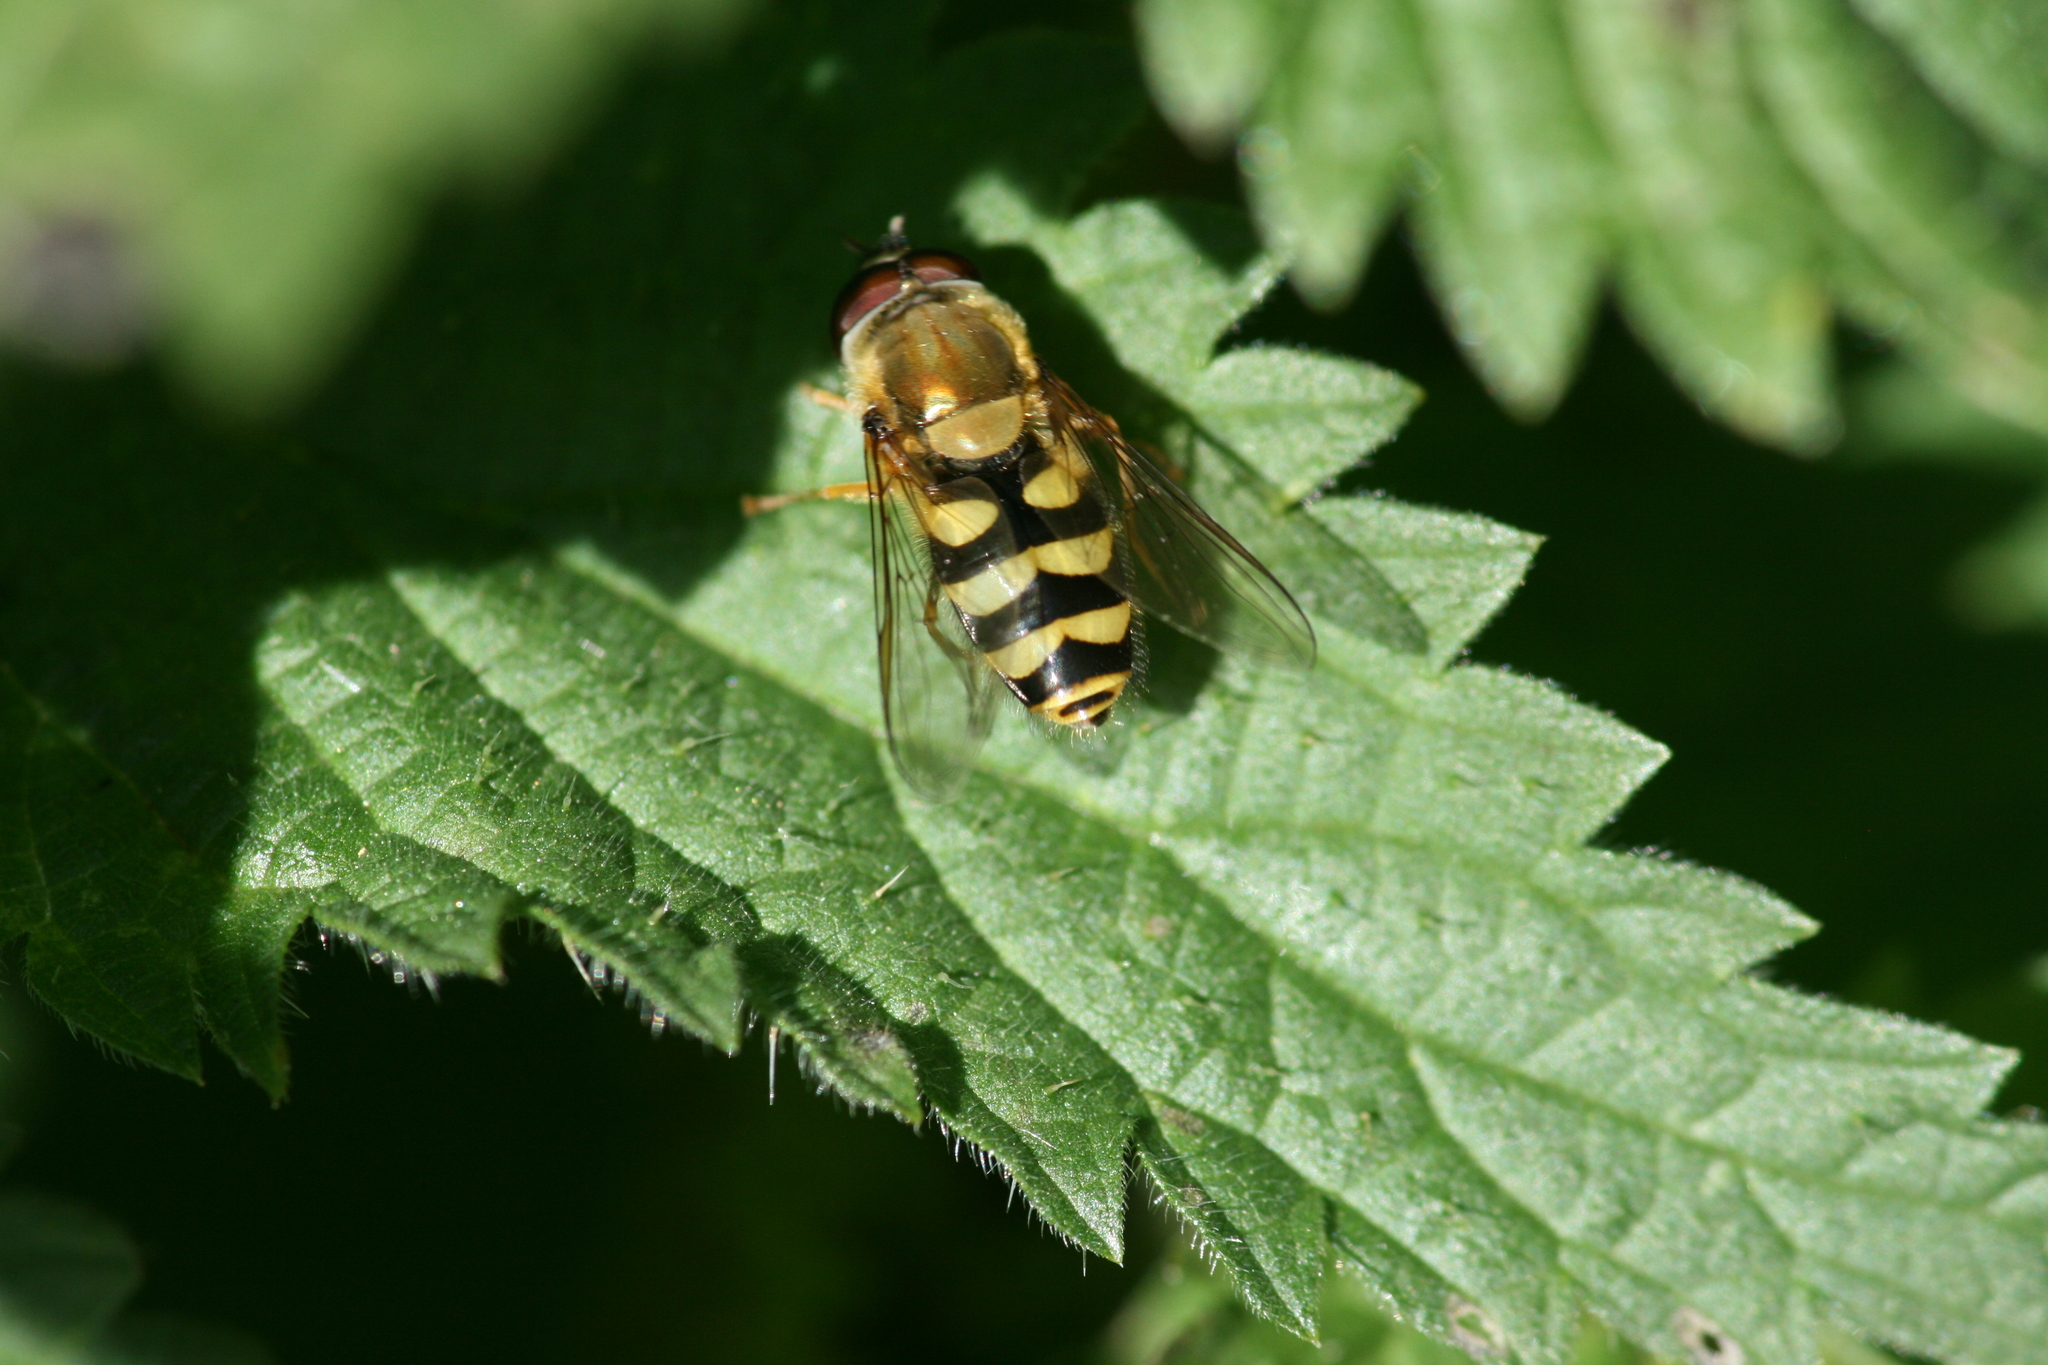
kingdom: Animalia
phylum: Arthropoda
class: Insecta
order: Diptera
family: Syrphidae
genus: Syrphus
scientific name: Syrphus
